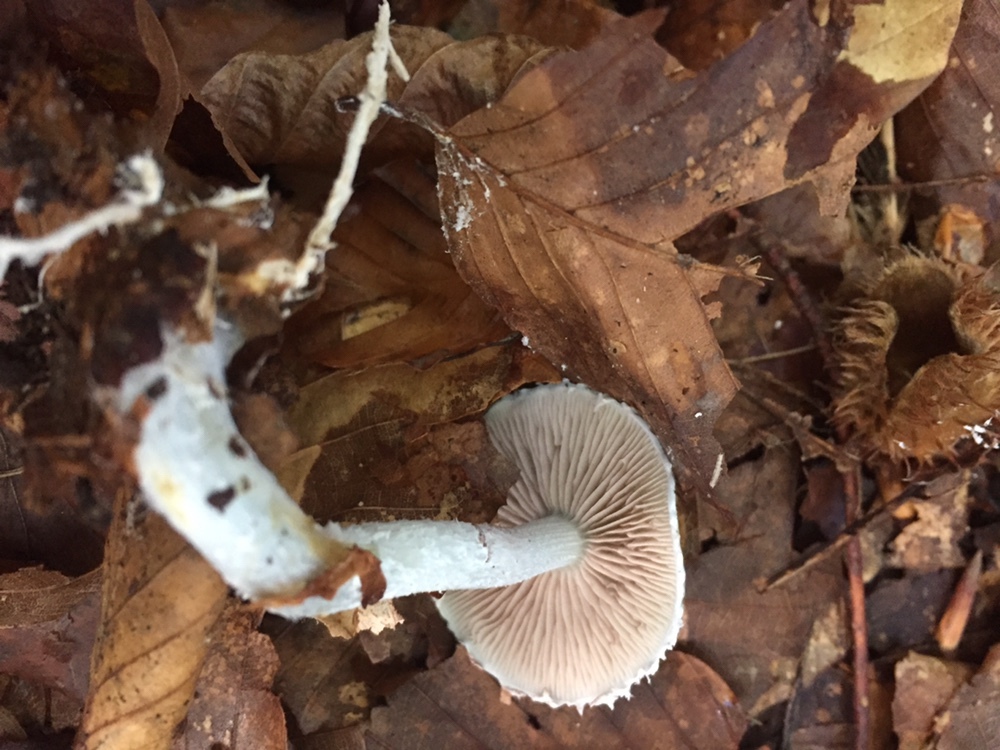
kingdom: Fungi
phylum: Basidiomycota
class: Agaricomycetes
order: Agaricales
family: Strophariaceae
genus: Stropharia
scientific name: Stropharia aeruginosa
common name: Verdigris roundhead
